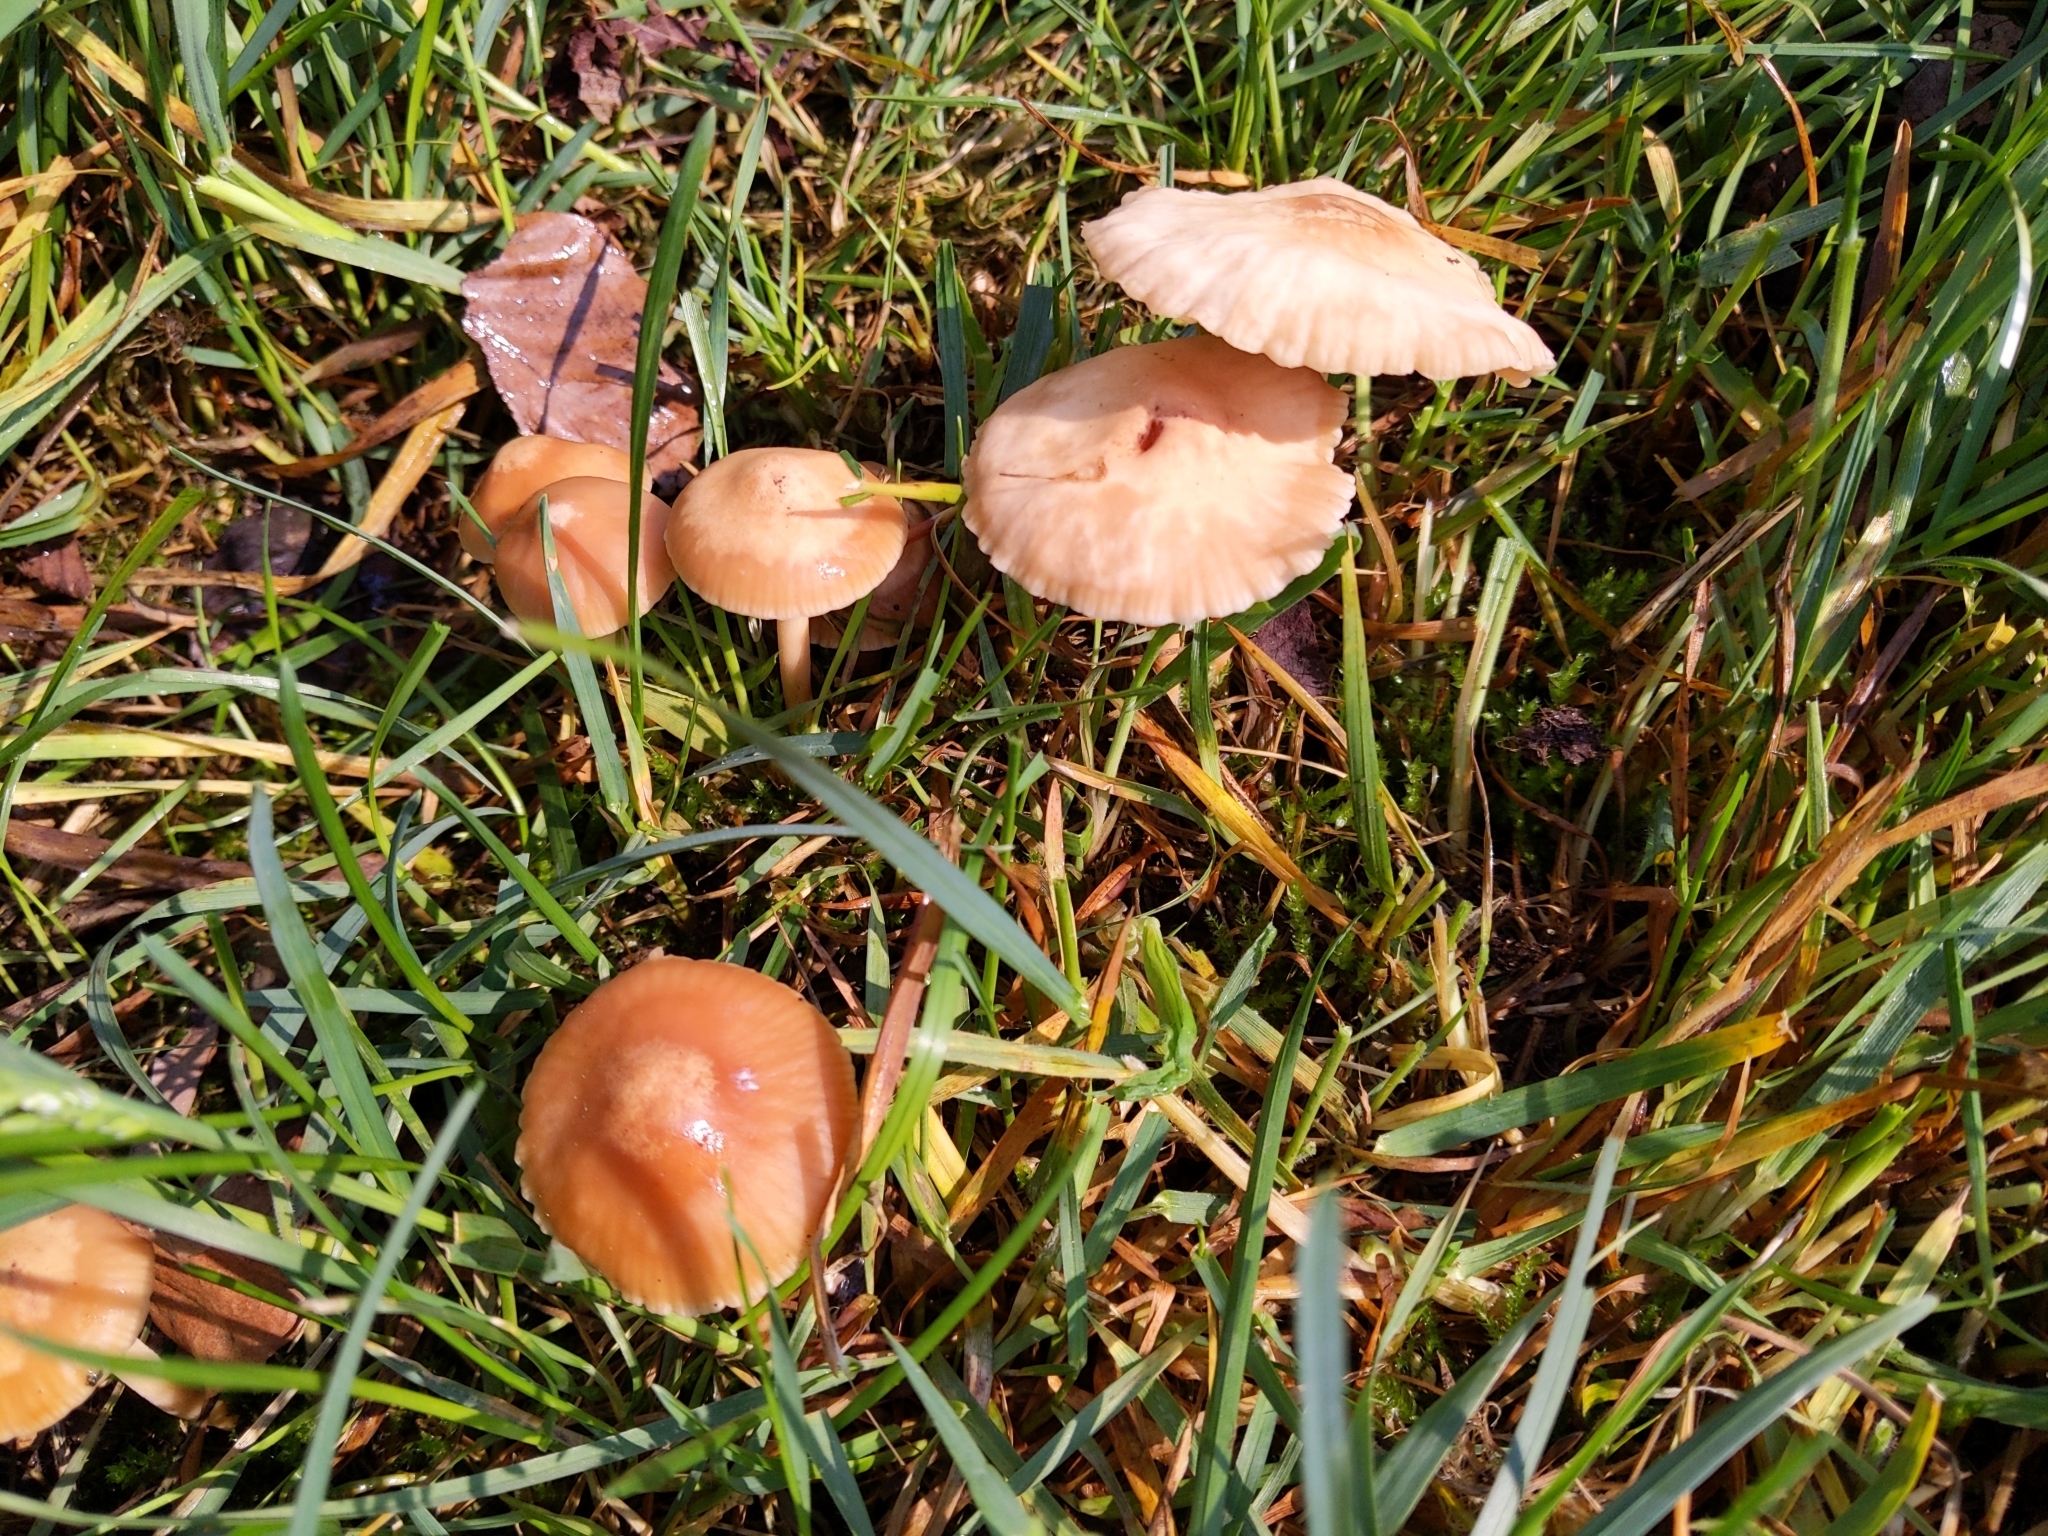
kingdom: Fungi
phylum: Basidiomycota
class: Agaricomycetes
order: Agaricales
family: Marasmiaceae
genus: Marasmius
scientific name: Marasmius oreades
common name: Fairy ring champignon
